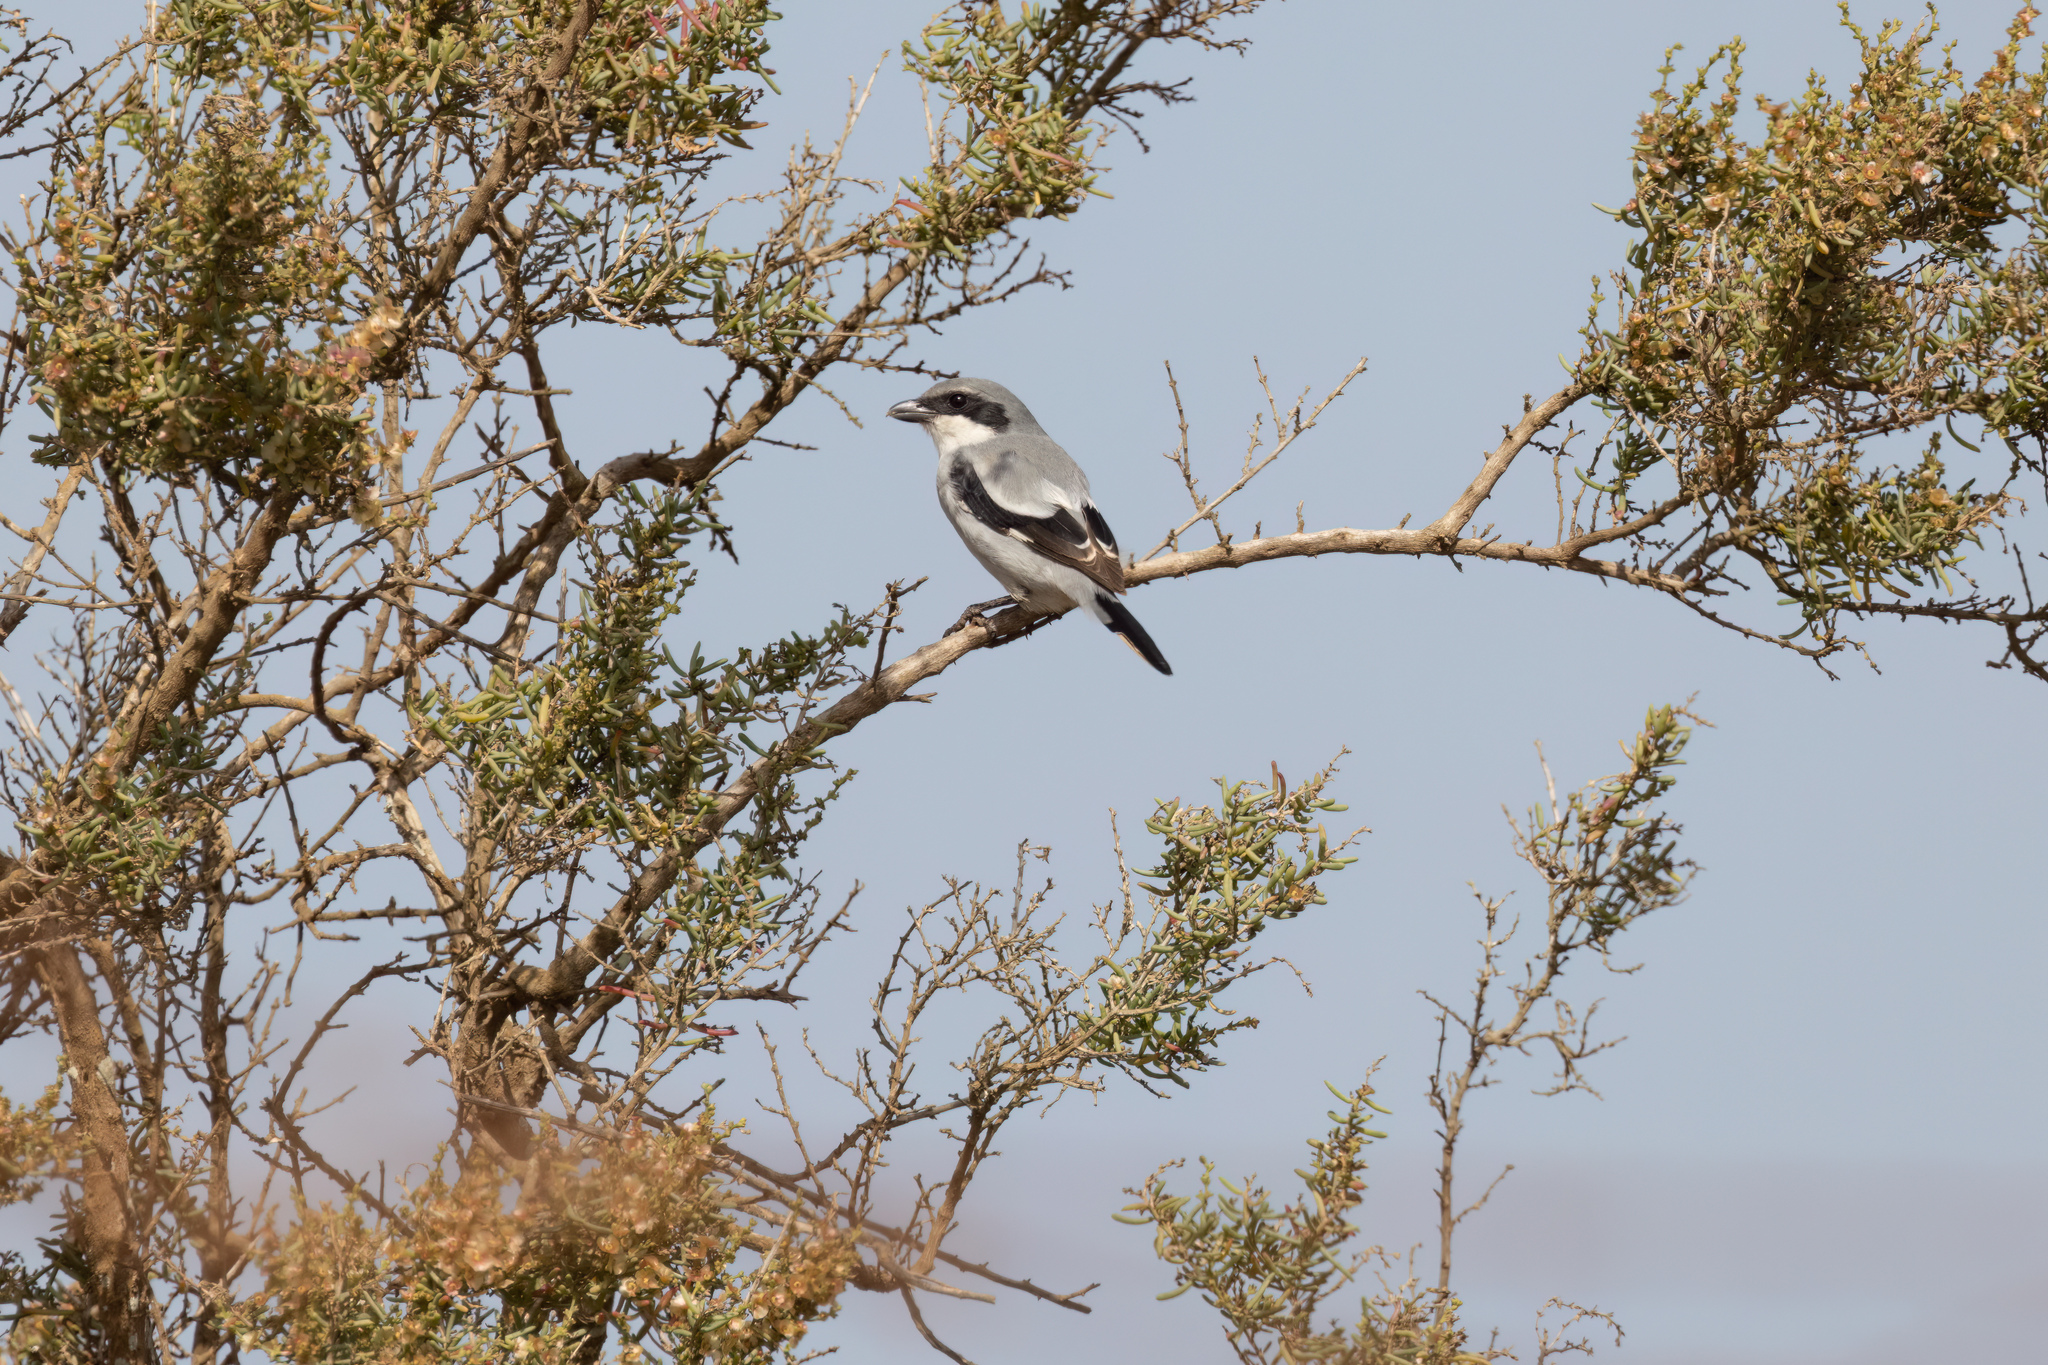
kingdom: Animalia
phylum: Chordata
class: Aves
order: Passeriformes
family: Laniidae
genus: Lanius
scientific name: Lanius excubitor
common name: Great grey shrike
